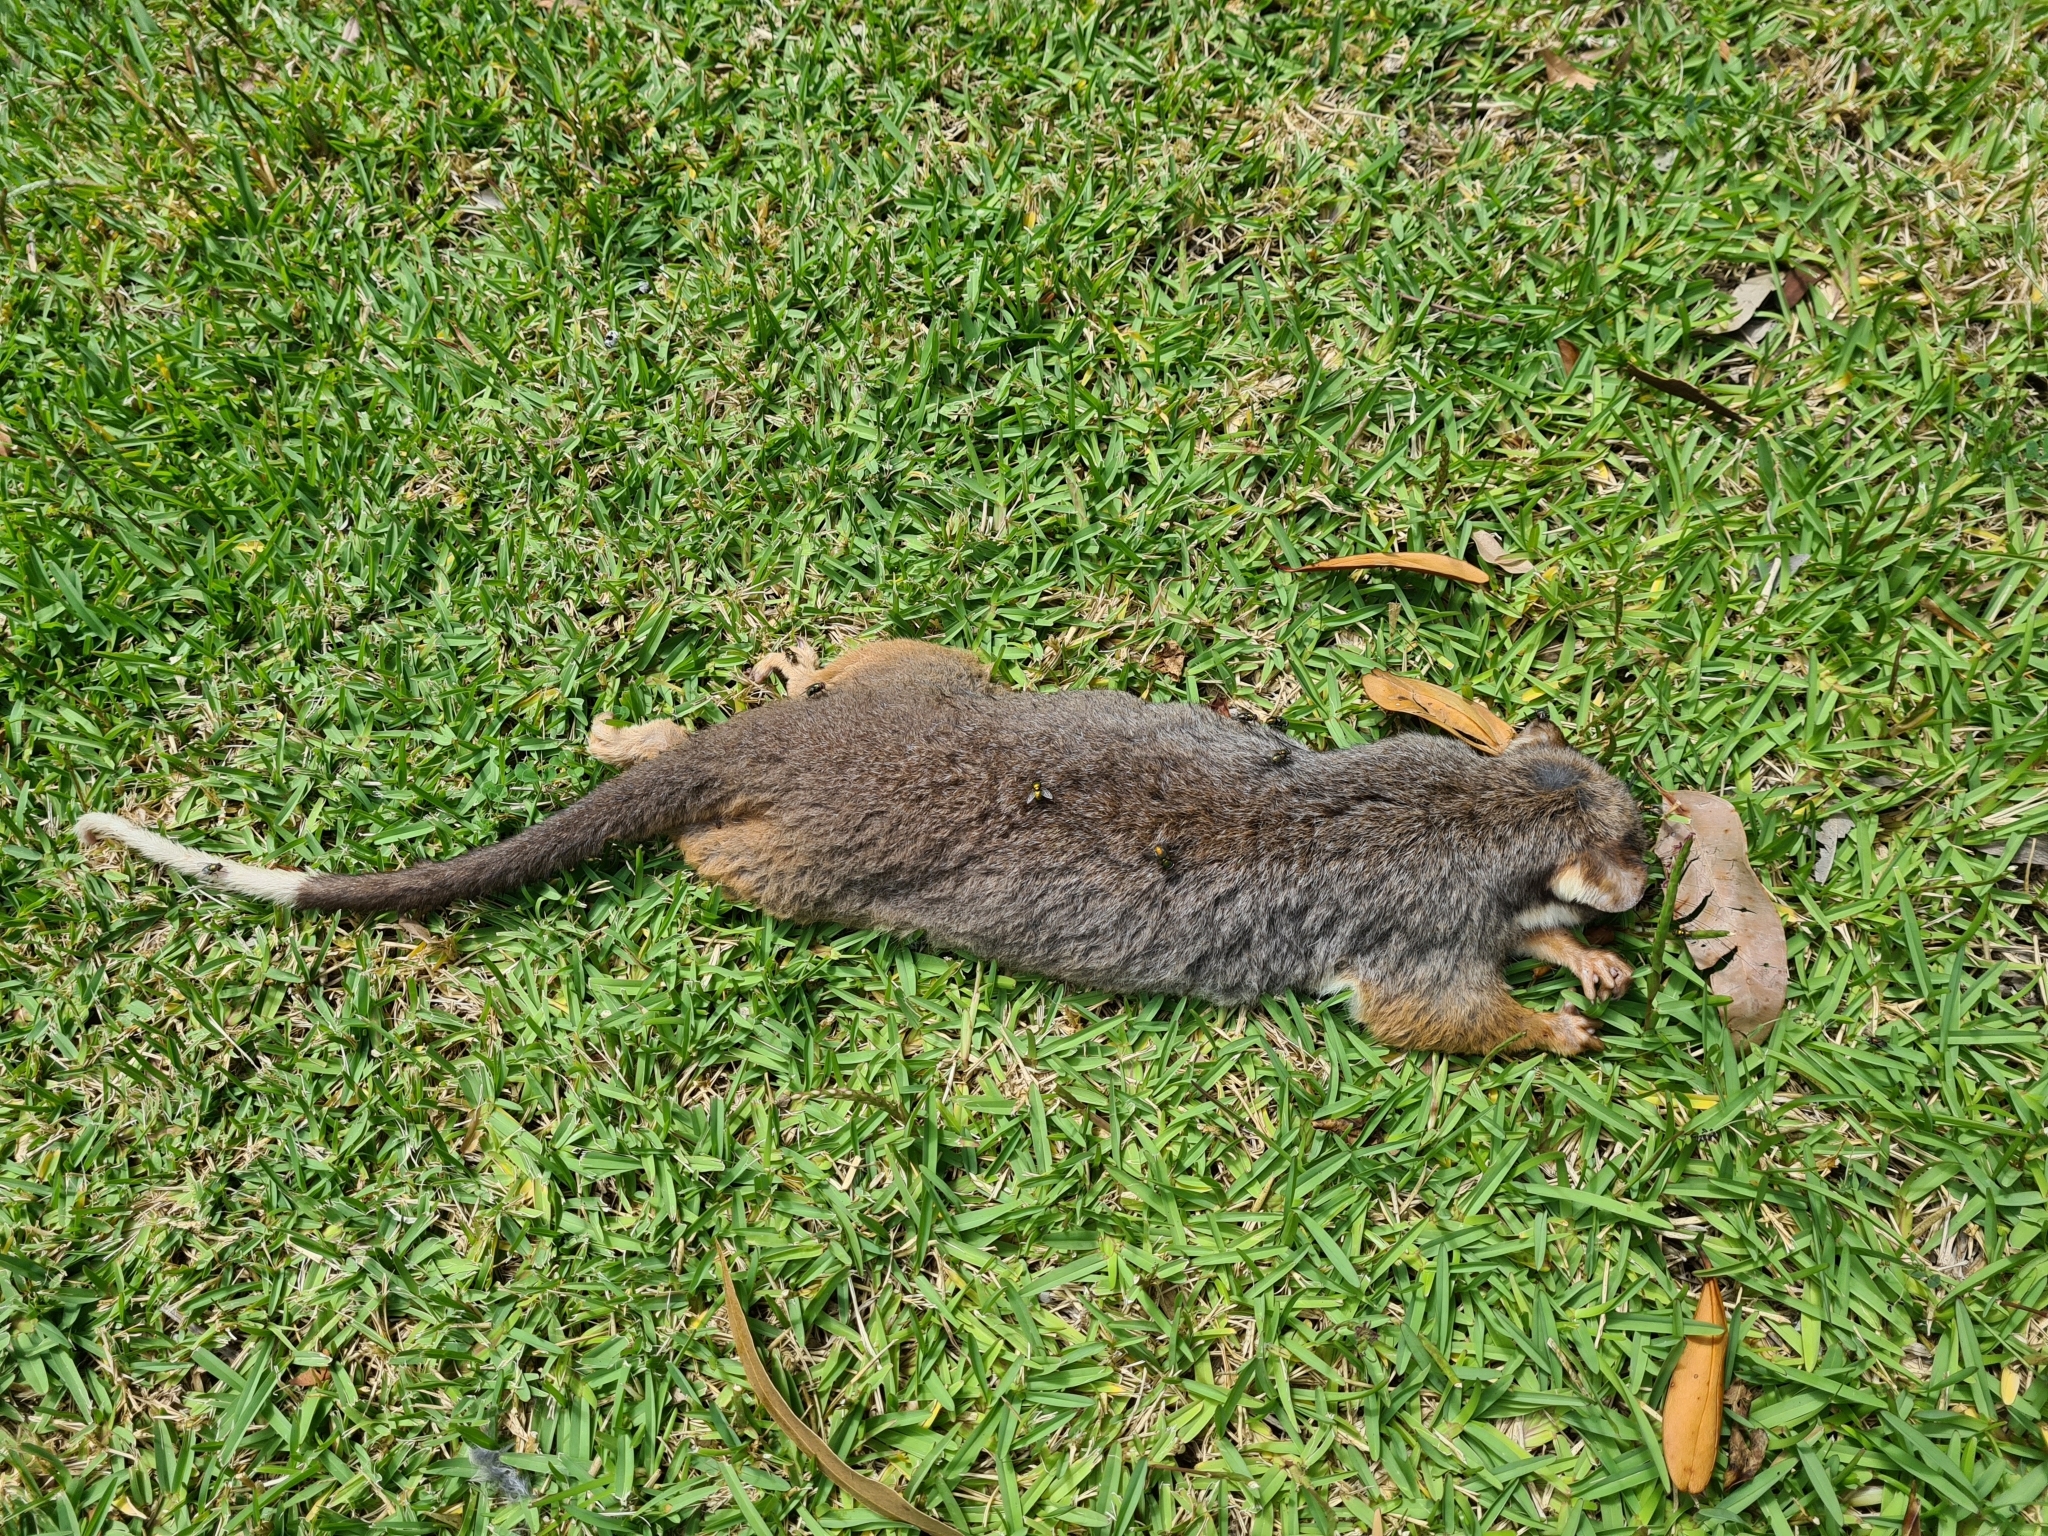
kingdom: Animalia
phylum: Chordata
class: Mammalia
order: Diprotodontia
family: Pseudocheiridae
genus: Pseudocheirus
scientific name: Pseudocheirus peregrinus
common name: Common ringtail possum
